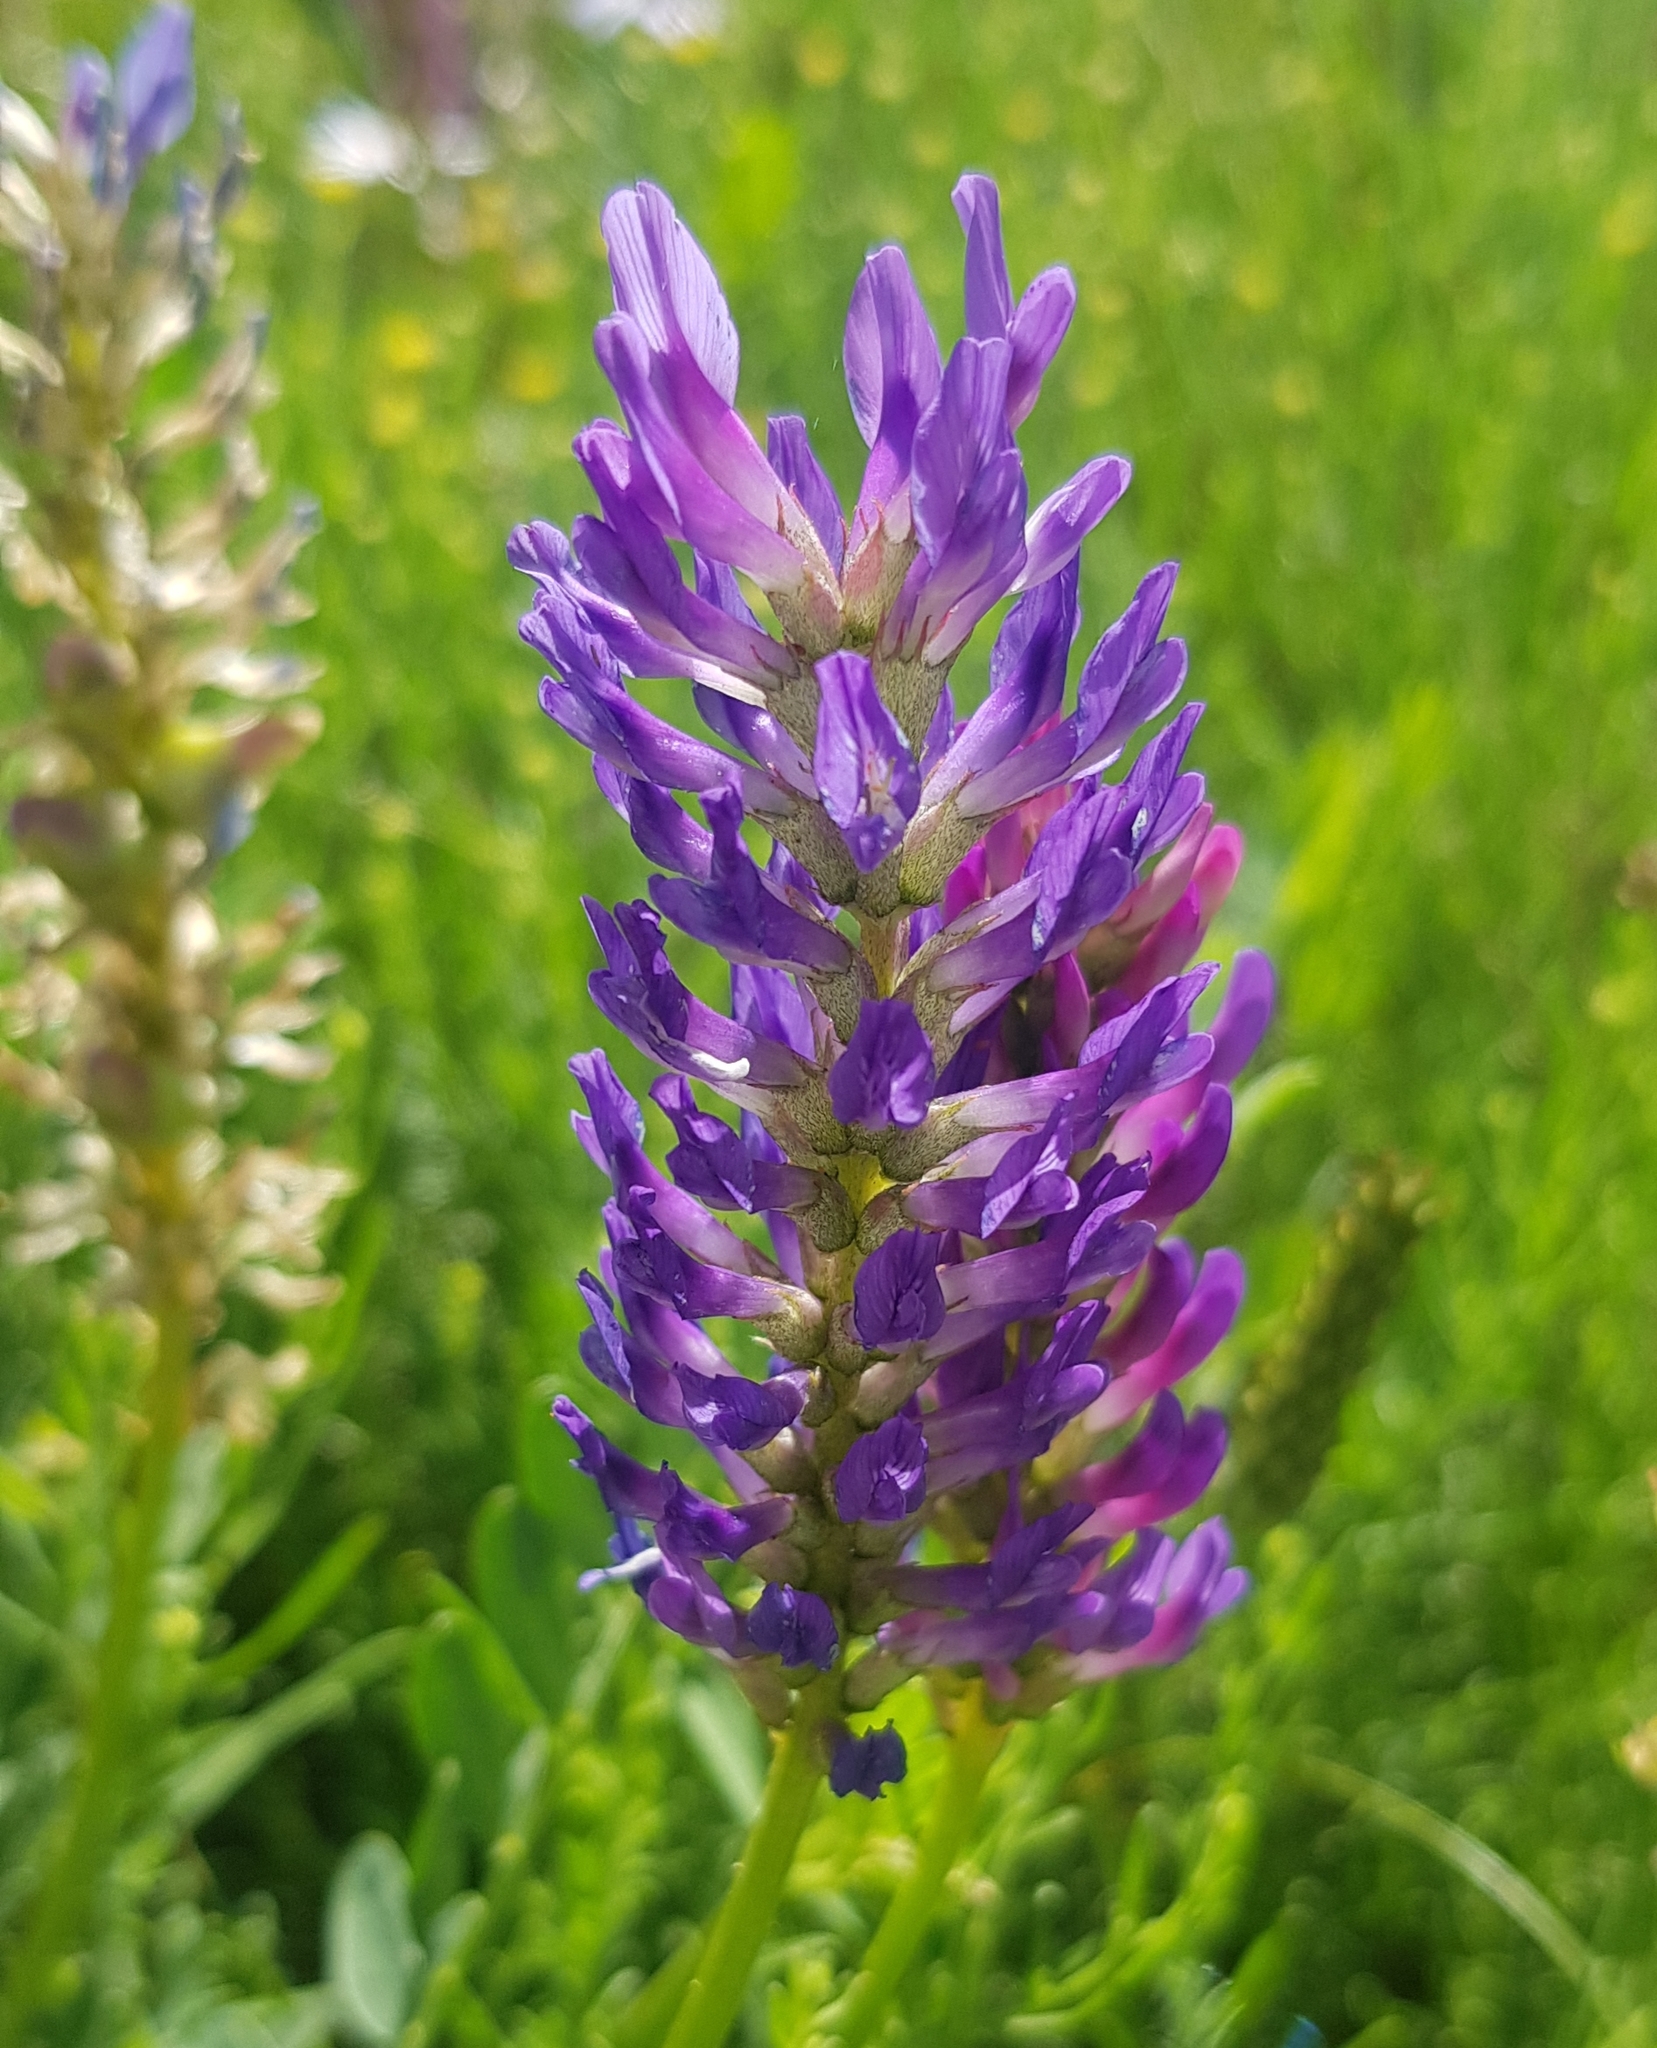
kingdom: Plantae
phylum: Tracheophyta
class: Magnoliopsida
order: Fabales
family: Fabaceae
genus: Astragalus
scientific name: Astragalus laxmannii
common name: Laxmann's milk-vetch
